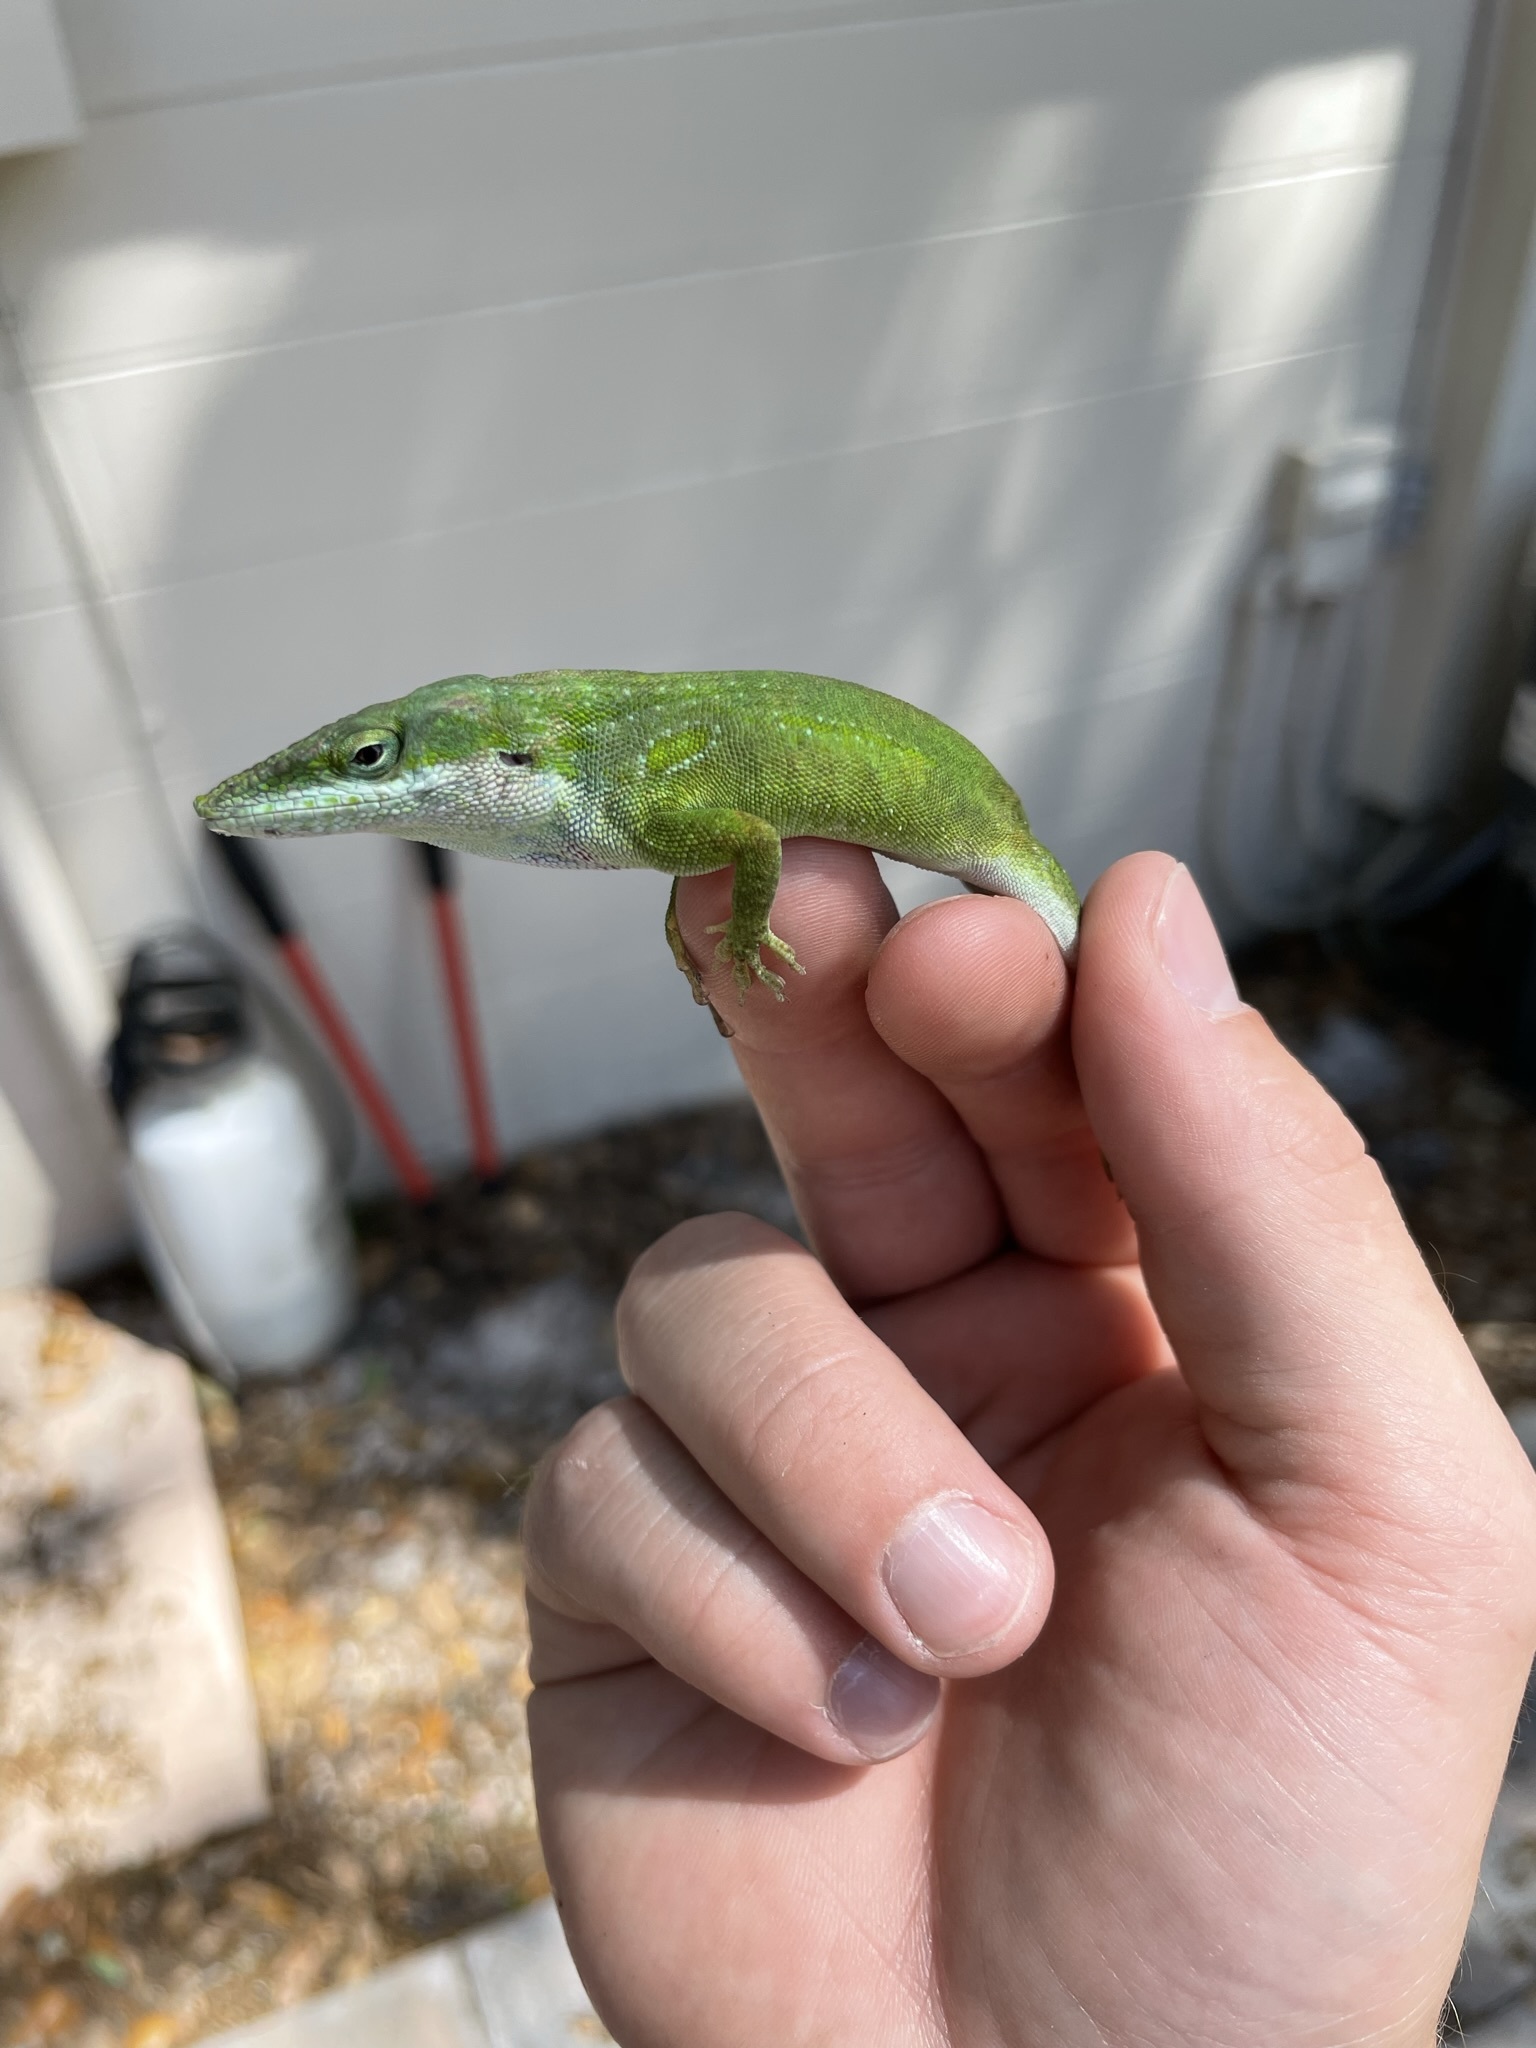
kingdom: Animalia
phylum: Chordata
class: Squamata
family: Dactyloidae
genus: Anolis
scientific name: Anolis allisoni
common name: Allison's anole
